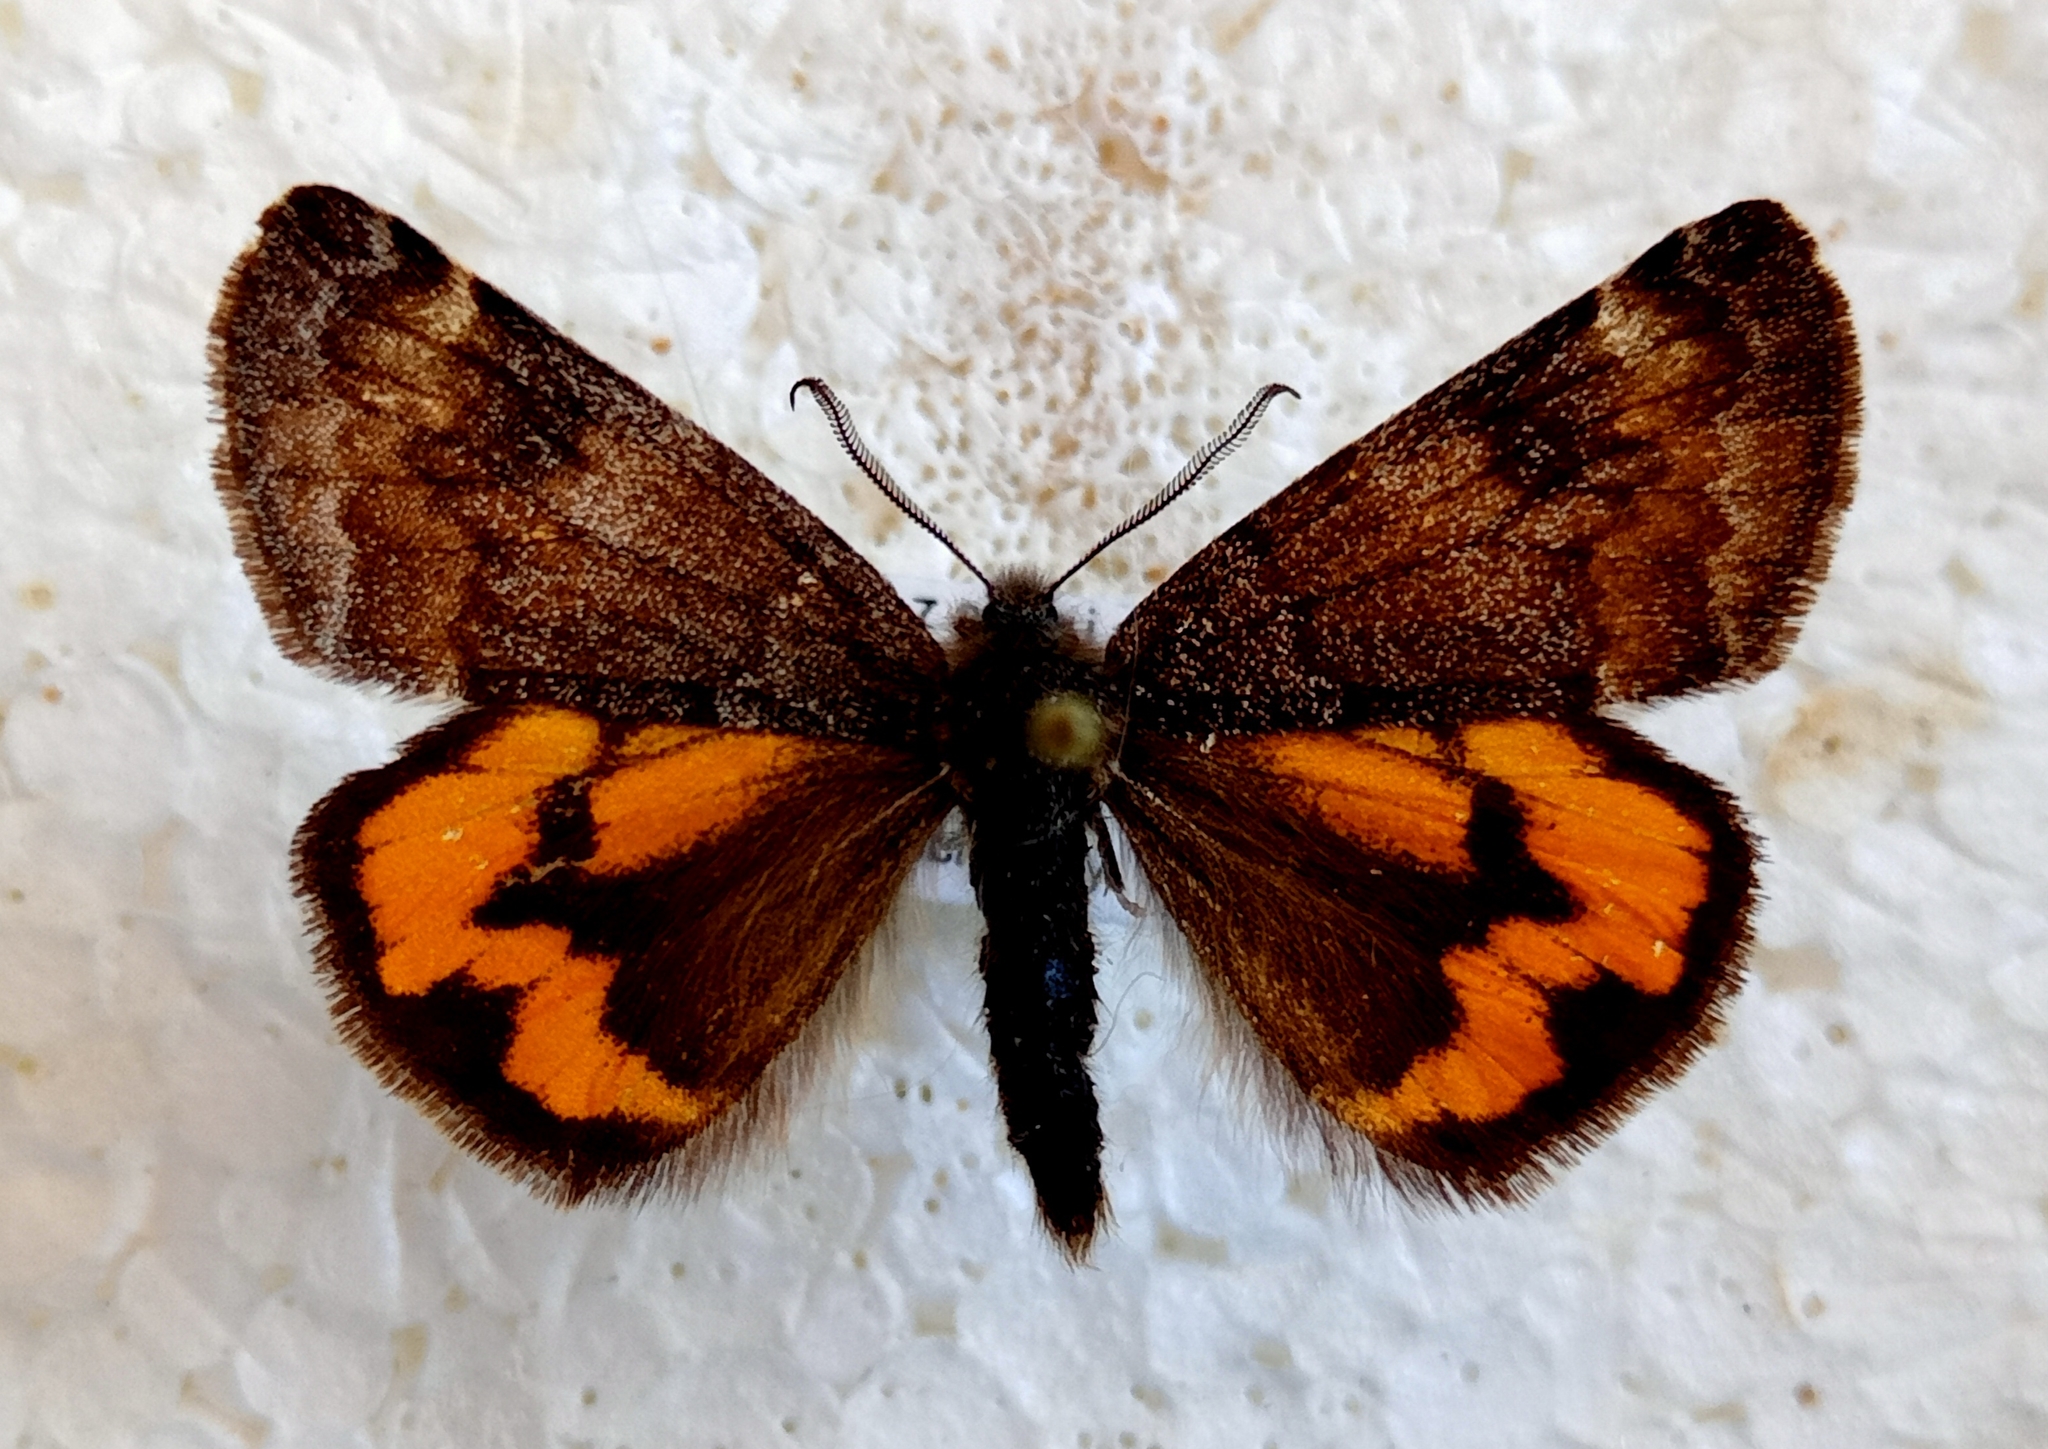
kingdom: Animalia
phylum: Arthropoda
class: Insecta
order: Lepidoptera
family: Geometridae
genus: Archiearis
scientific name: Archiearis notha
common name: Light orange underwing
